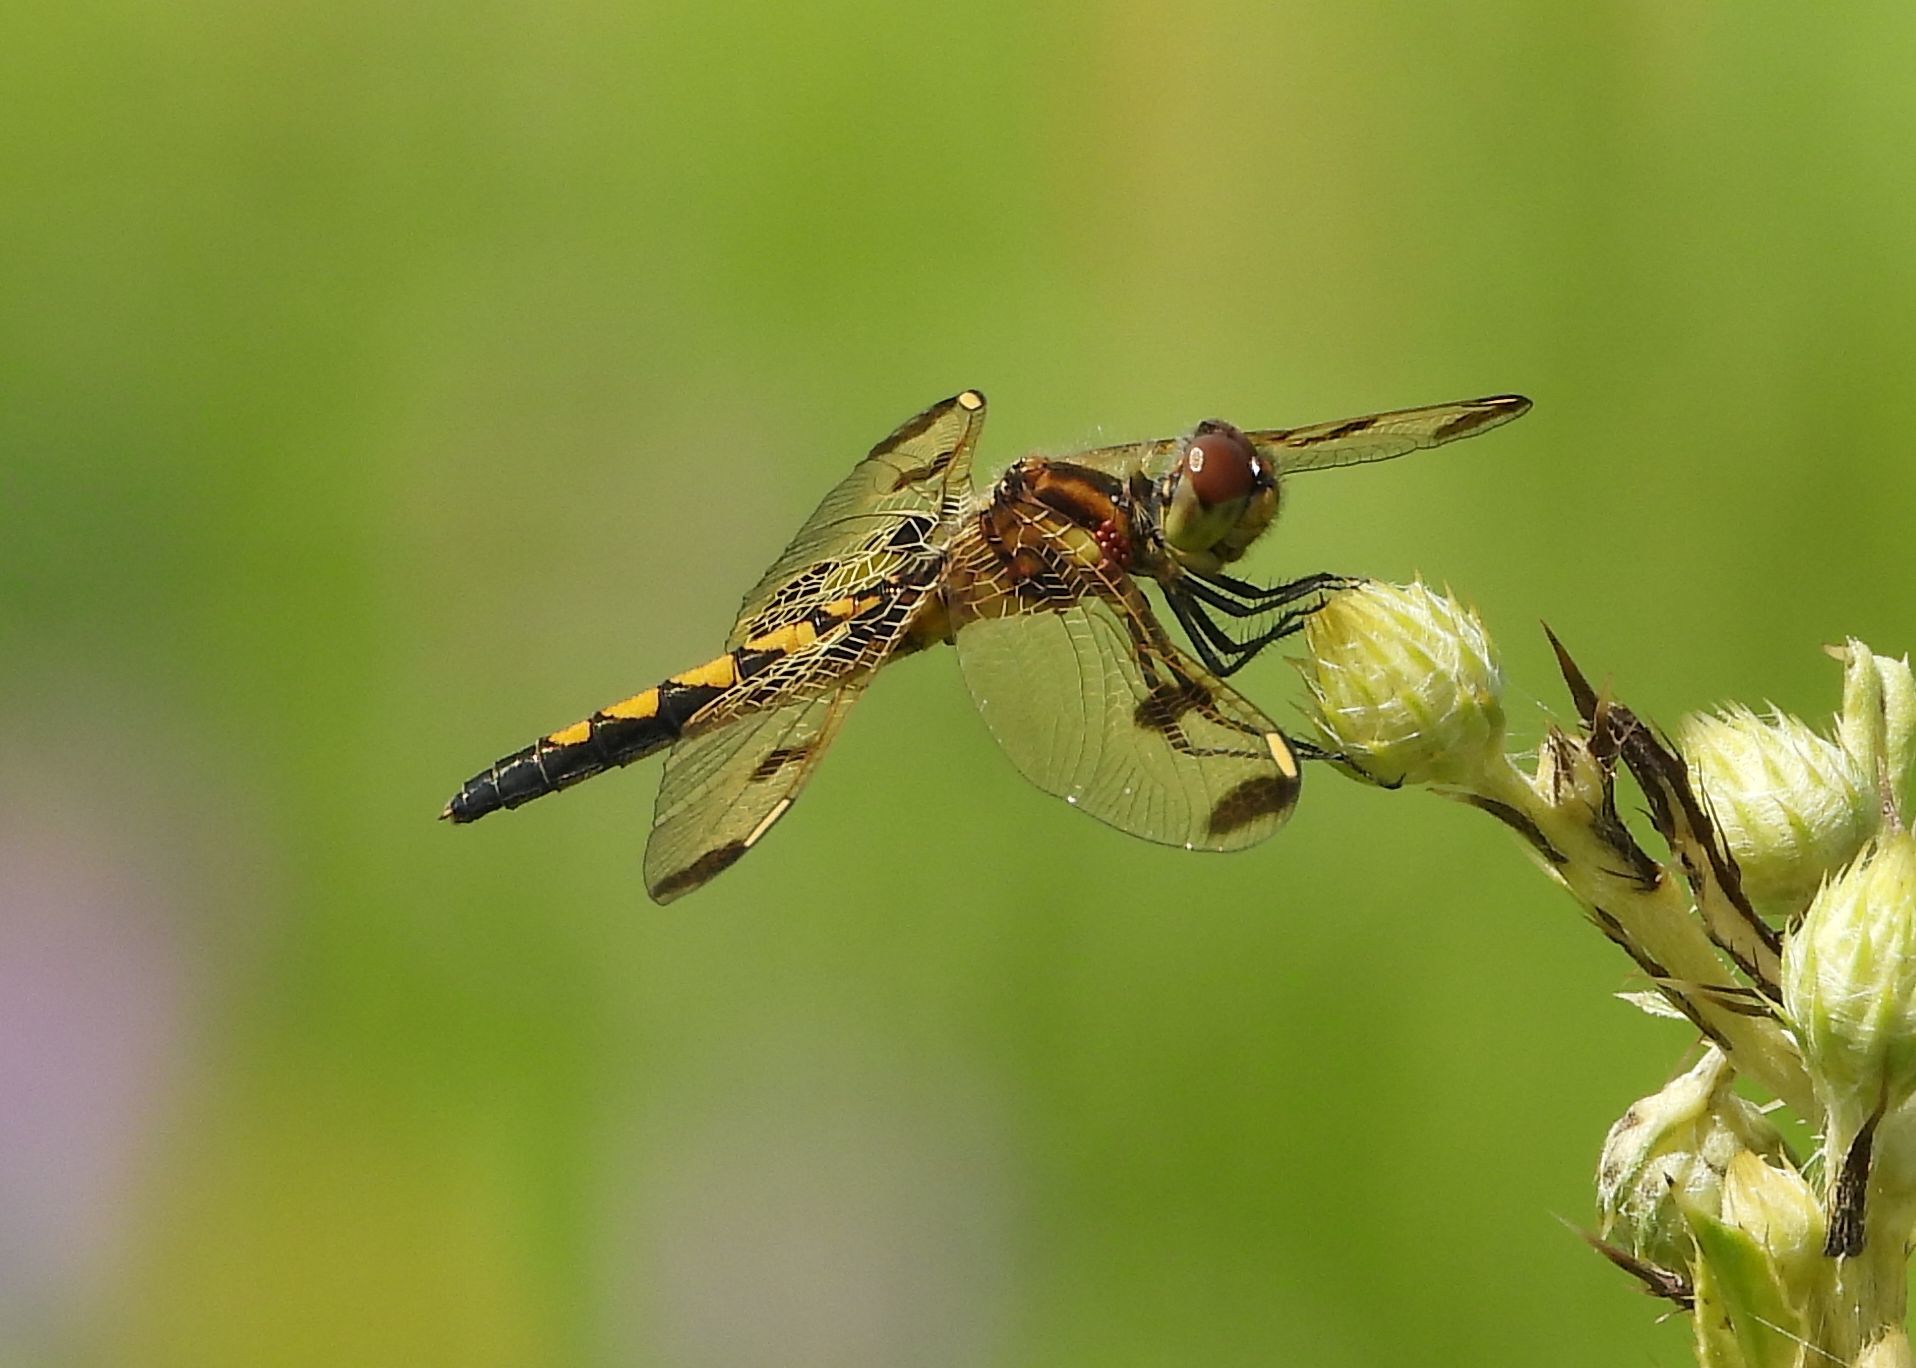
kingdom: Animalia
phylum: Arthropoda
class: Insecta
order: Odonata
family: Libellulidae
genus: Celithemis
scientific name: Celithemis elisa
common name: Calico pennant
